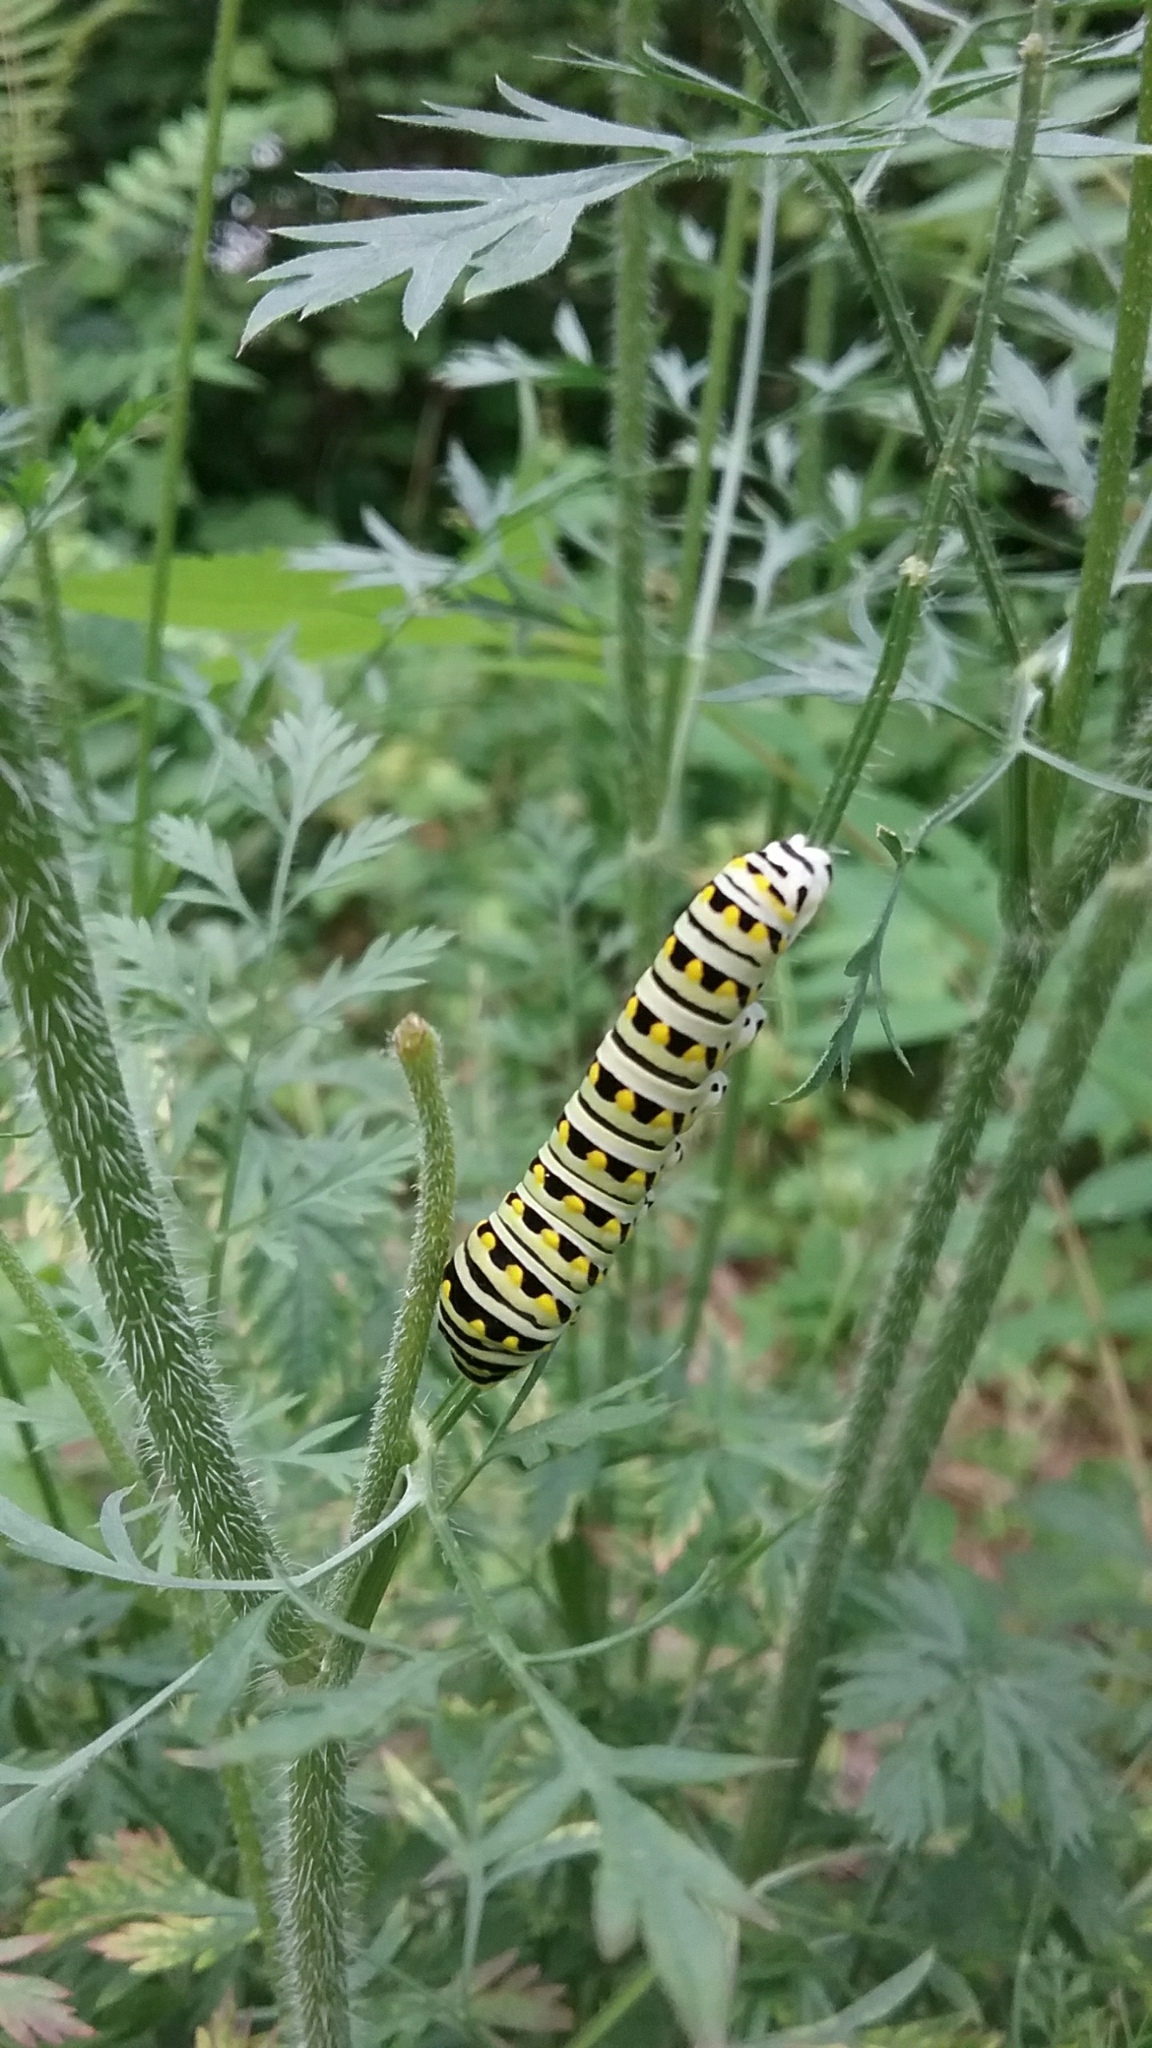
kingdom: Animalia
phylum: Arthropoda
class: Insecta
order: Lepidoptera
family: Papilionidae
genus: Papilio
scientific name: Papilio polyxenes
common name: Black swallowtail
